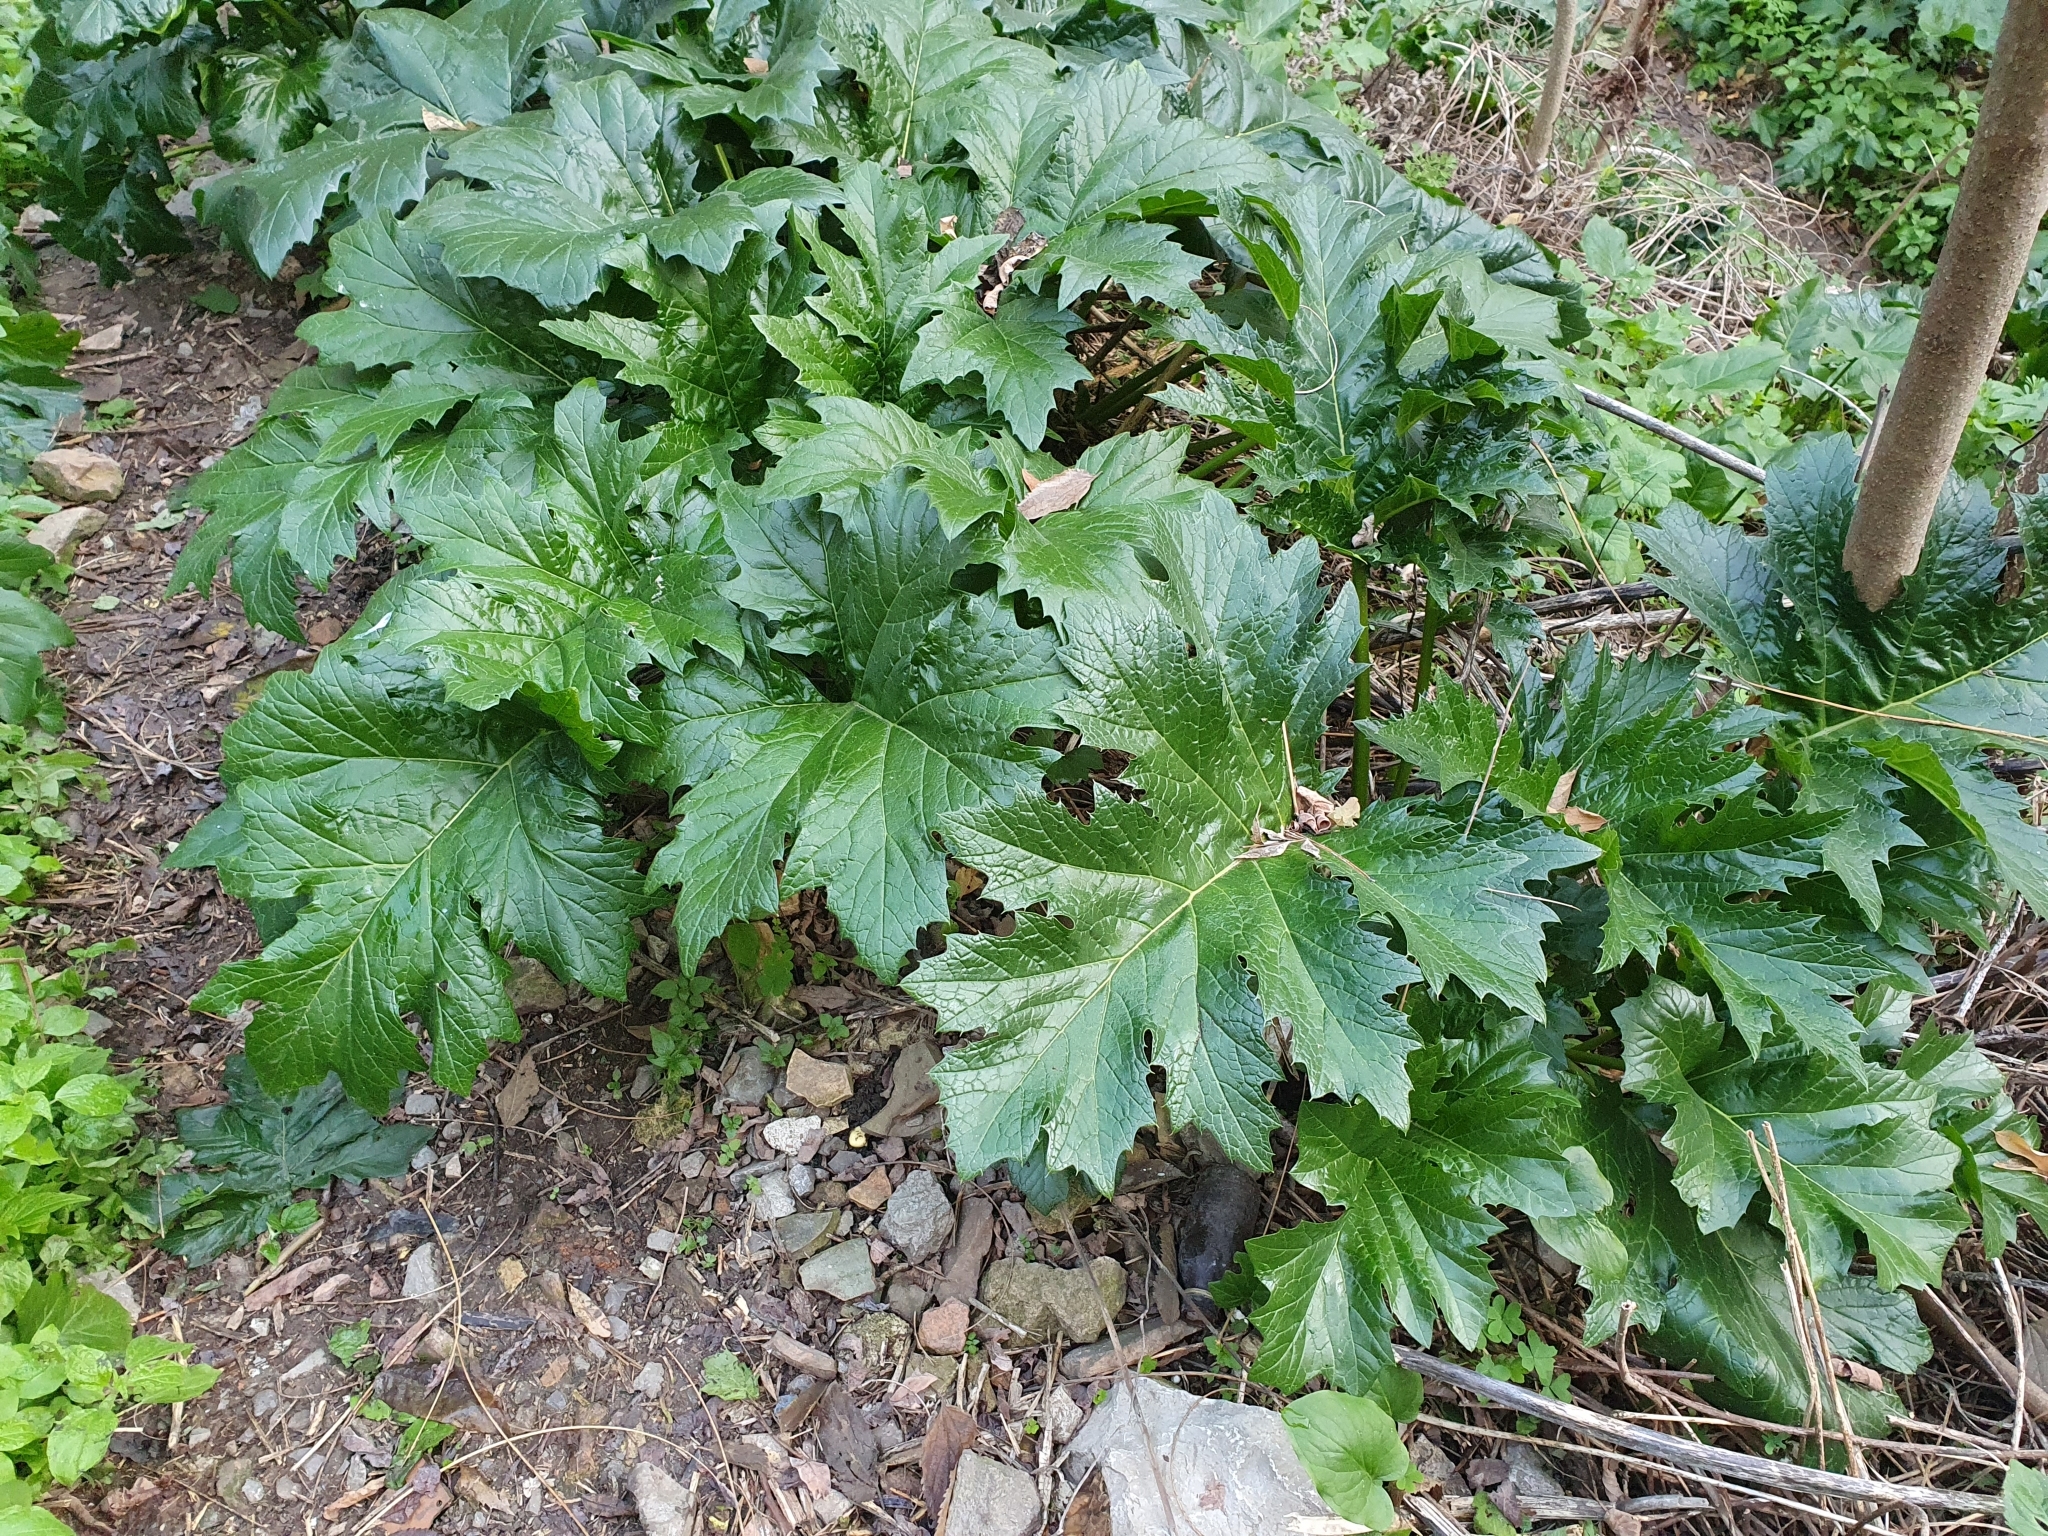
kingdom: Plantae
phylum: Tracheophyta
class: Magnoliopsida
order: Lamiales
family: Acanthaceae
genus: Acanthus
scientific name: Acanthus mollis
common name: Bear's-breech
